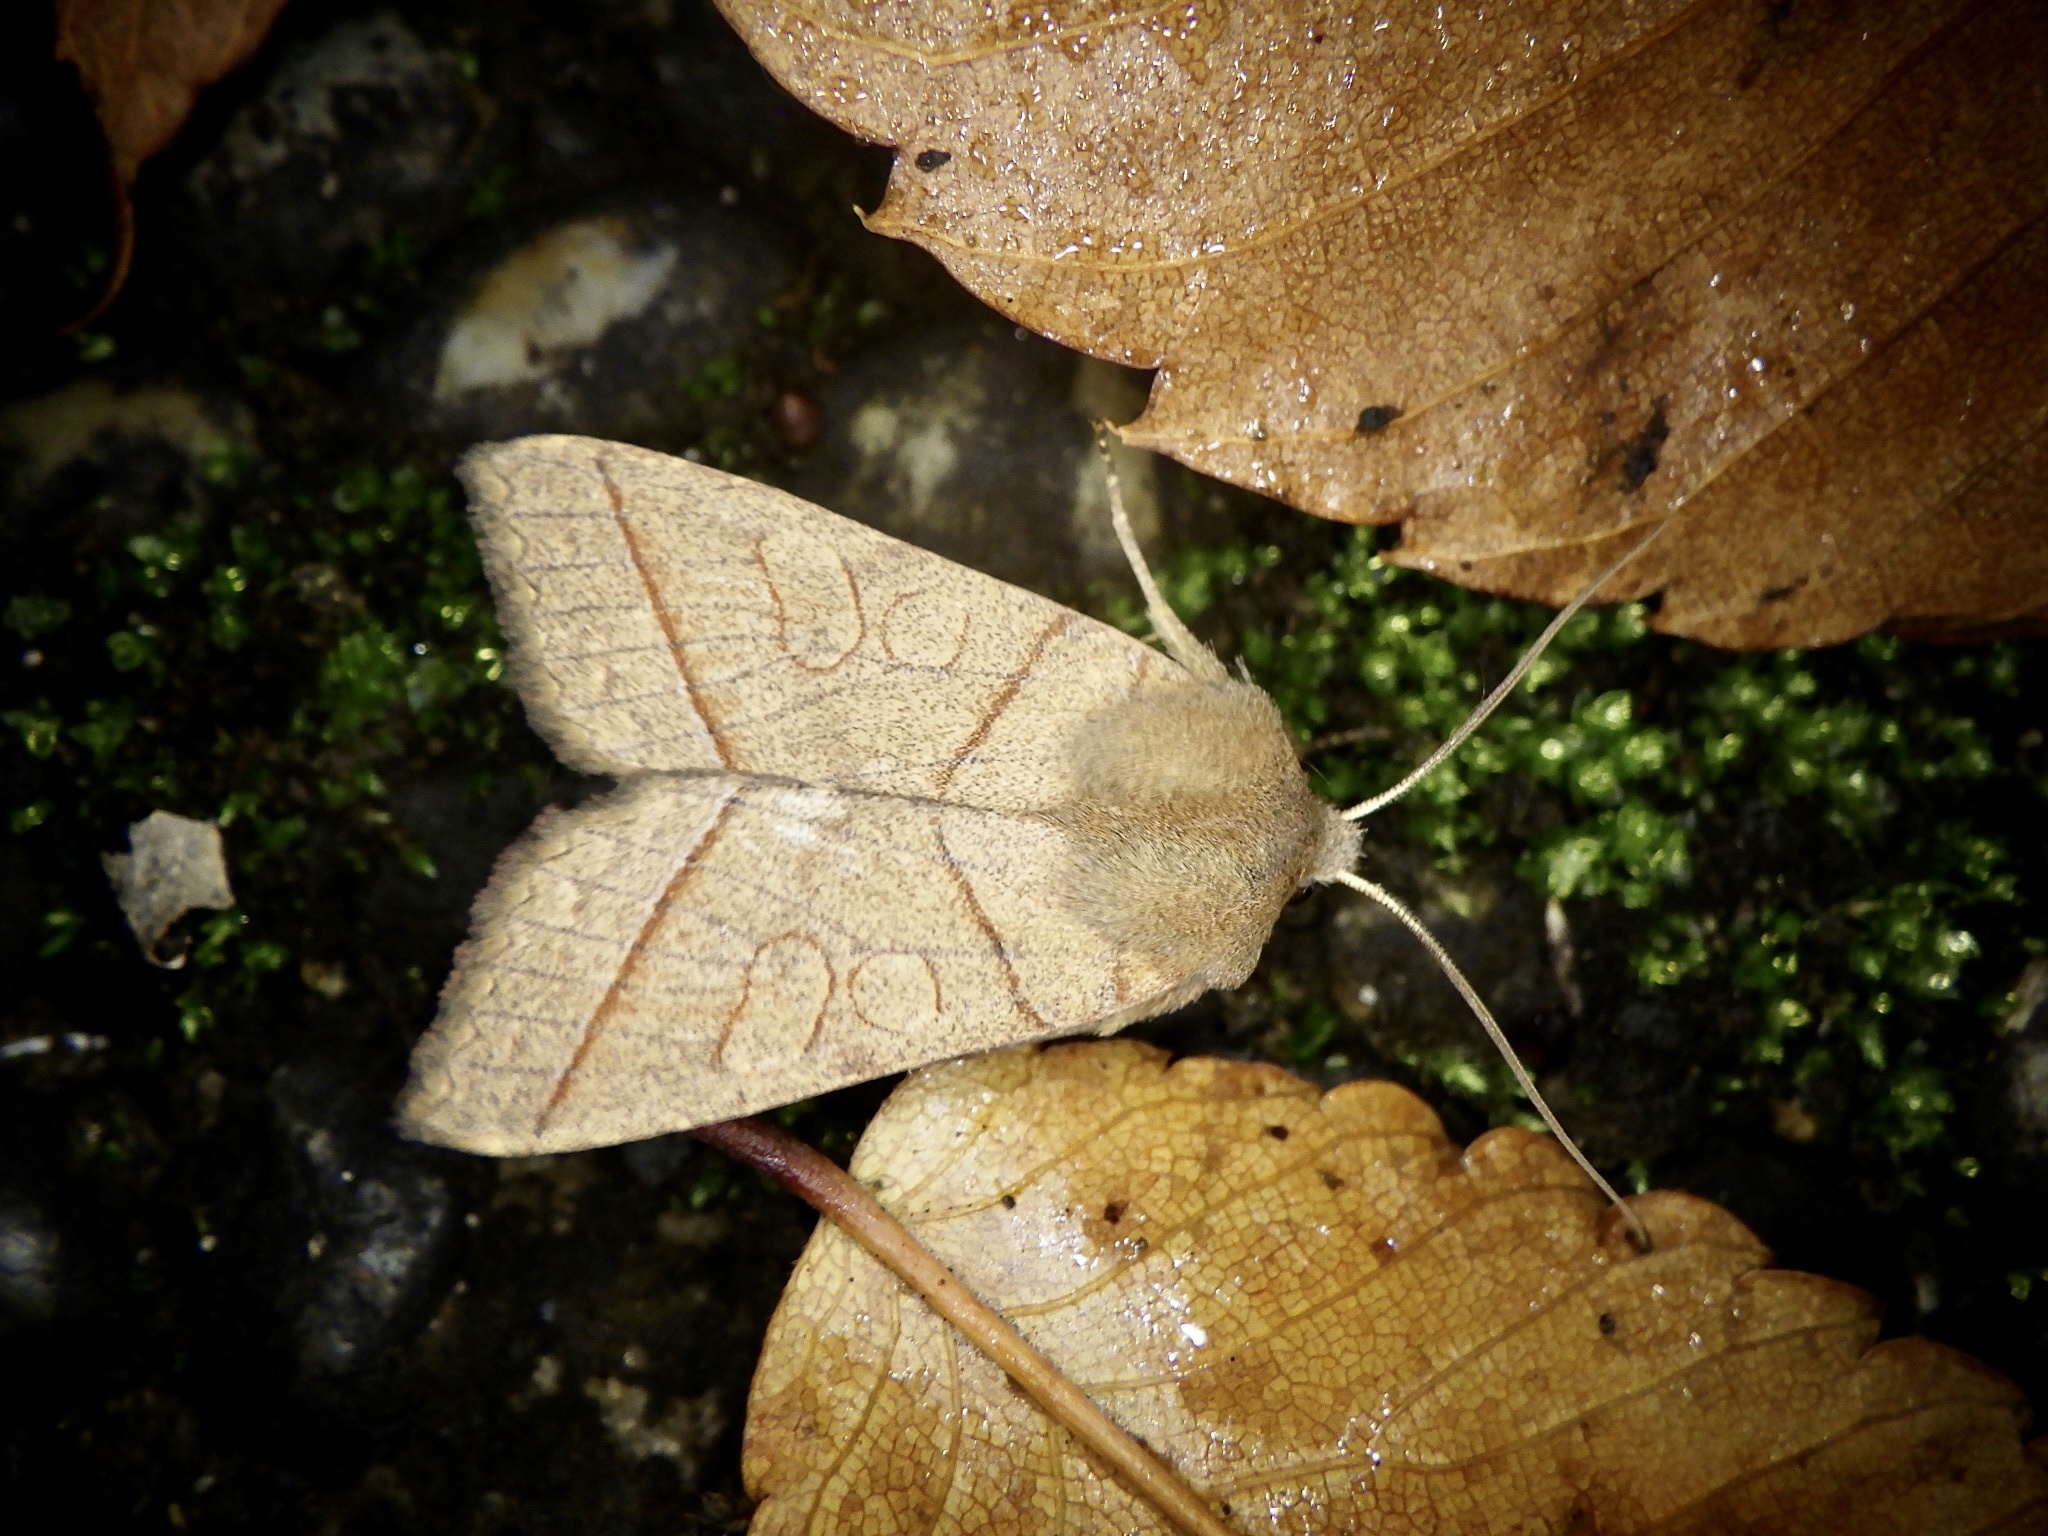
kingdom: Animalia
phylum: Arthropoda
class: Insecta
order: Lepidoptera
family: Noctuidae
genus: Telorta
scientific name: Telorta divergens
